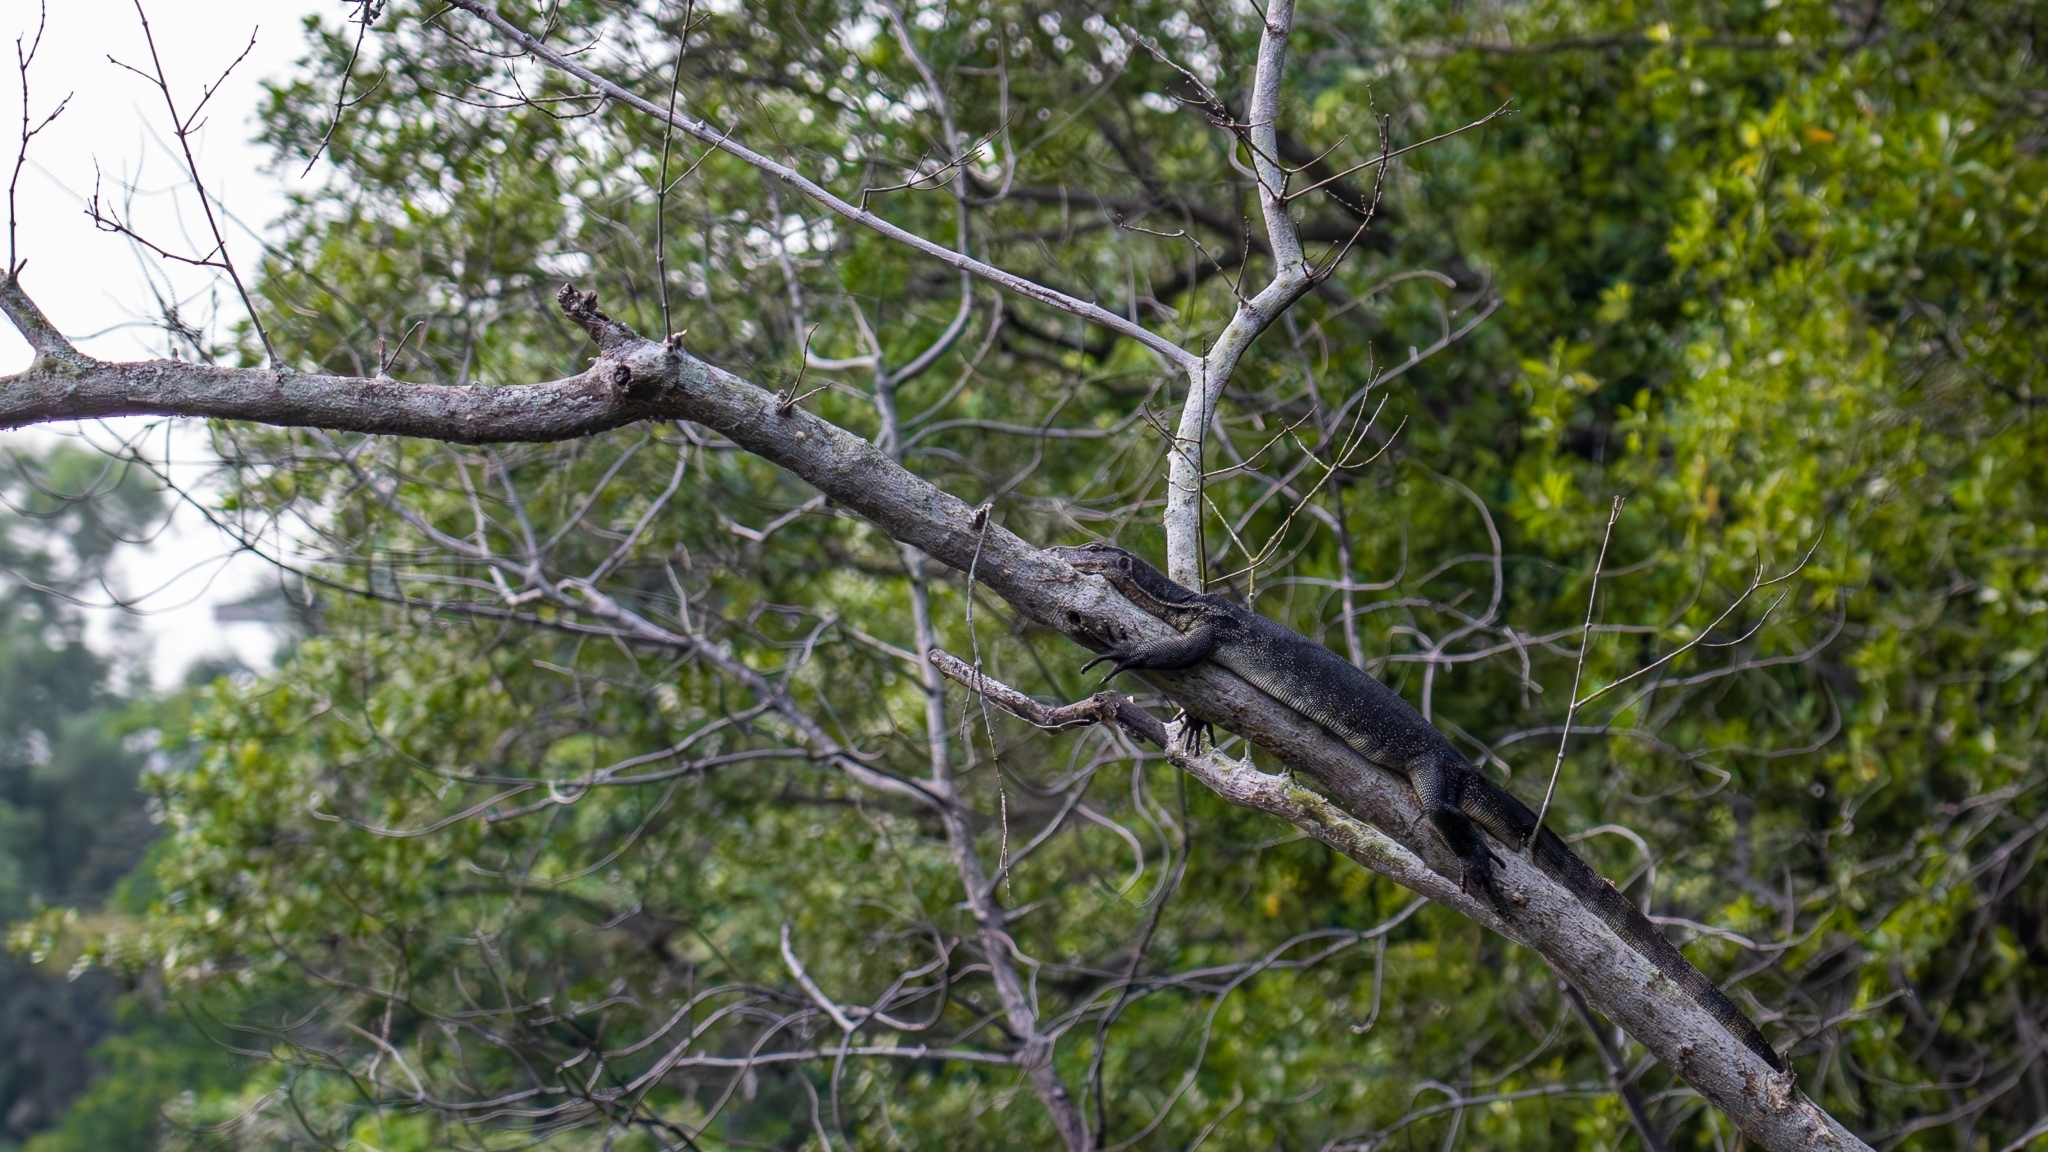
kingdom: Animalia
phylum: Chordata
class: Squamata
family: Varanidae
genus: Varanus
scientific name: Varanus salvator
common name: Common water monitor
